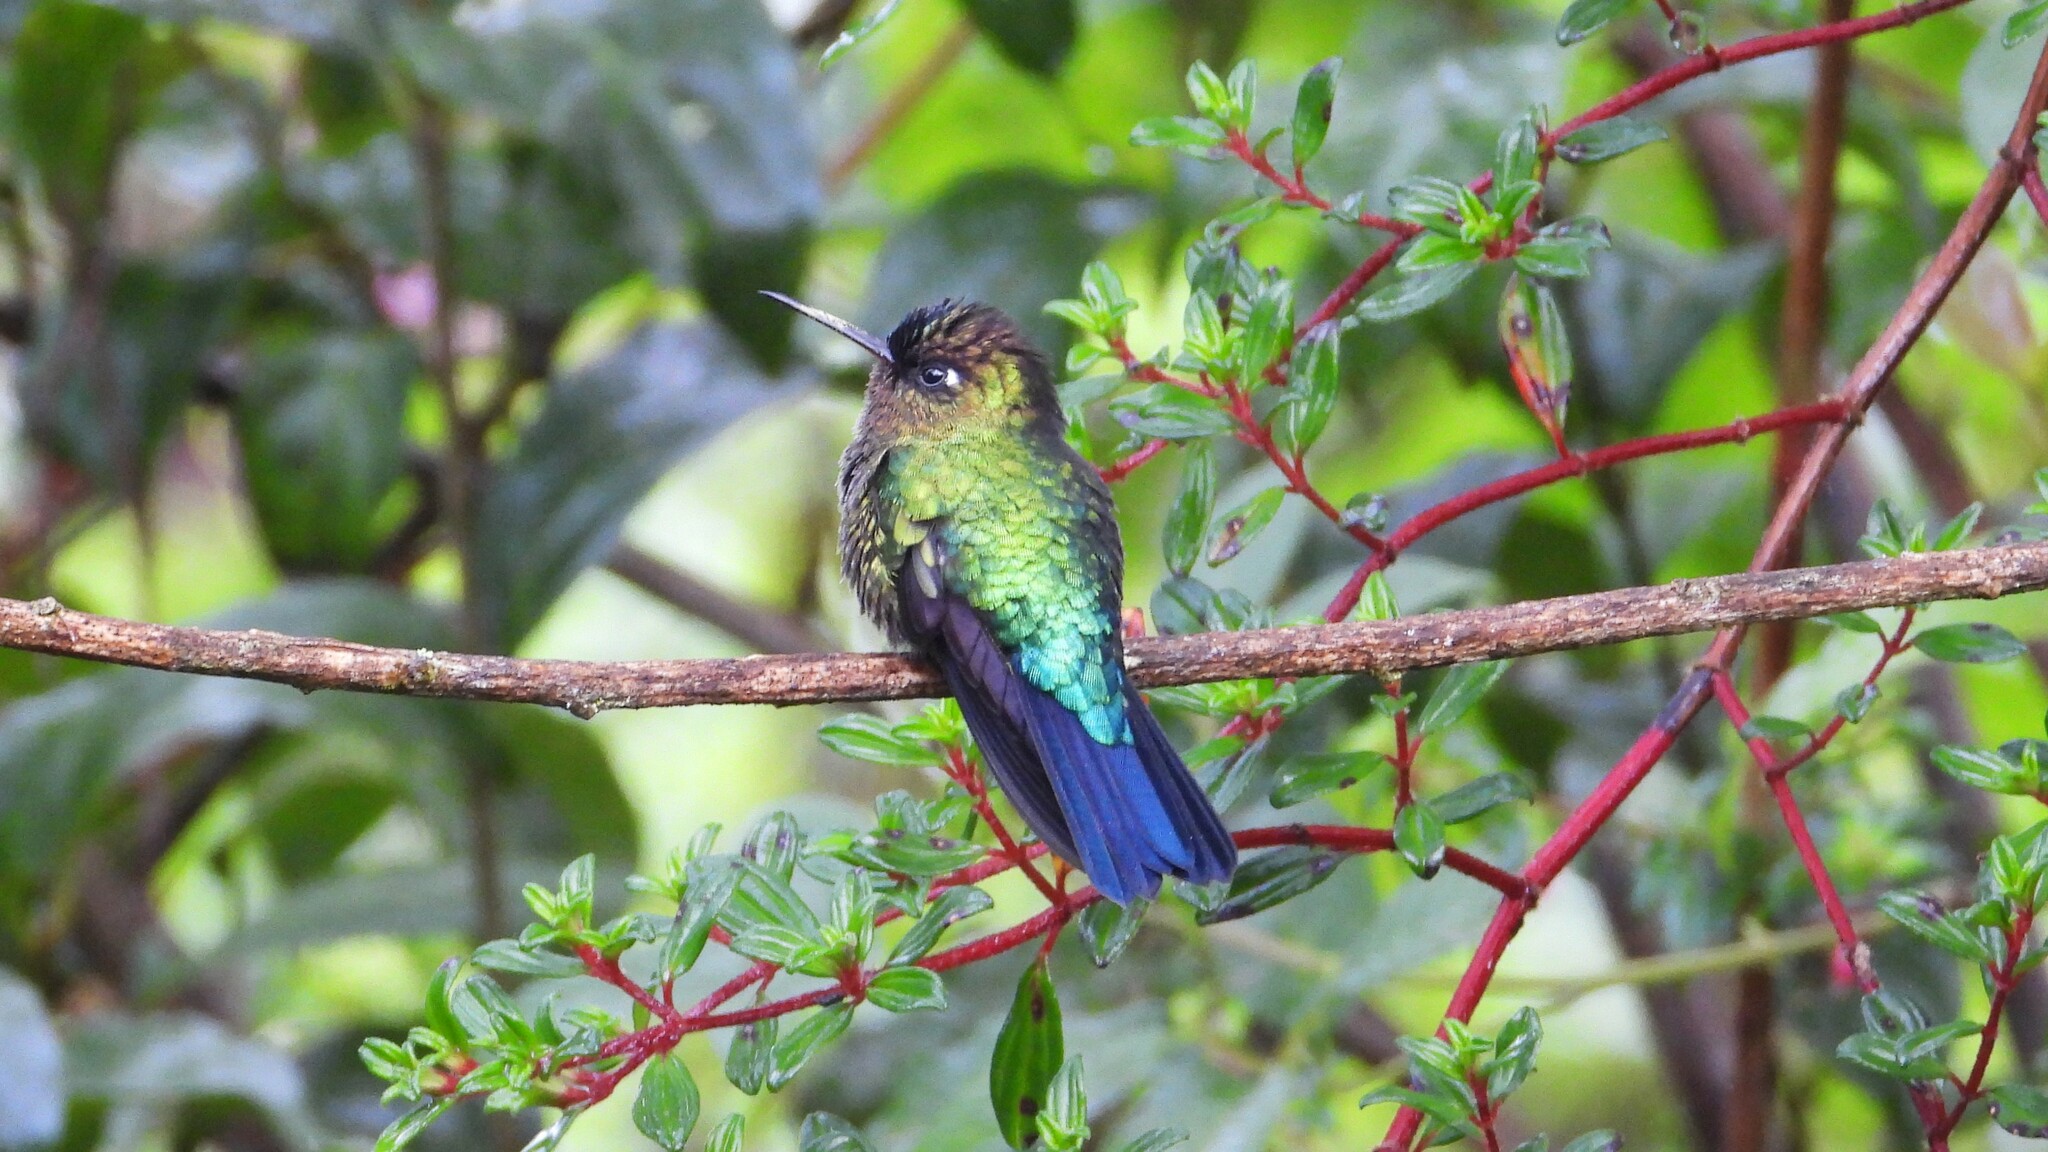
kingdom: Animalia
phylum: Chordata
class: Aves
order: Apodiformes
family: Trochilidae
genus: Panterpe
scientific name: Panterpe insignis
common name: Fiery-throated hummingbird
